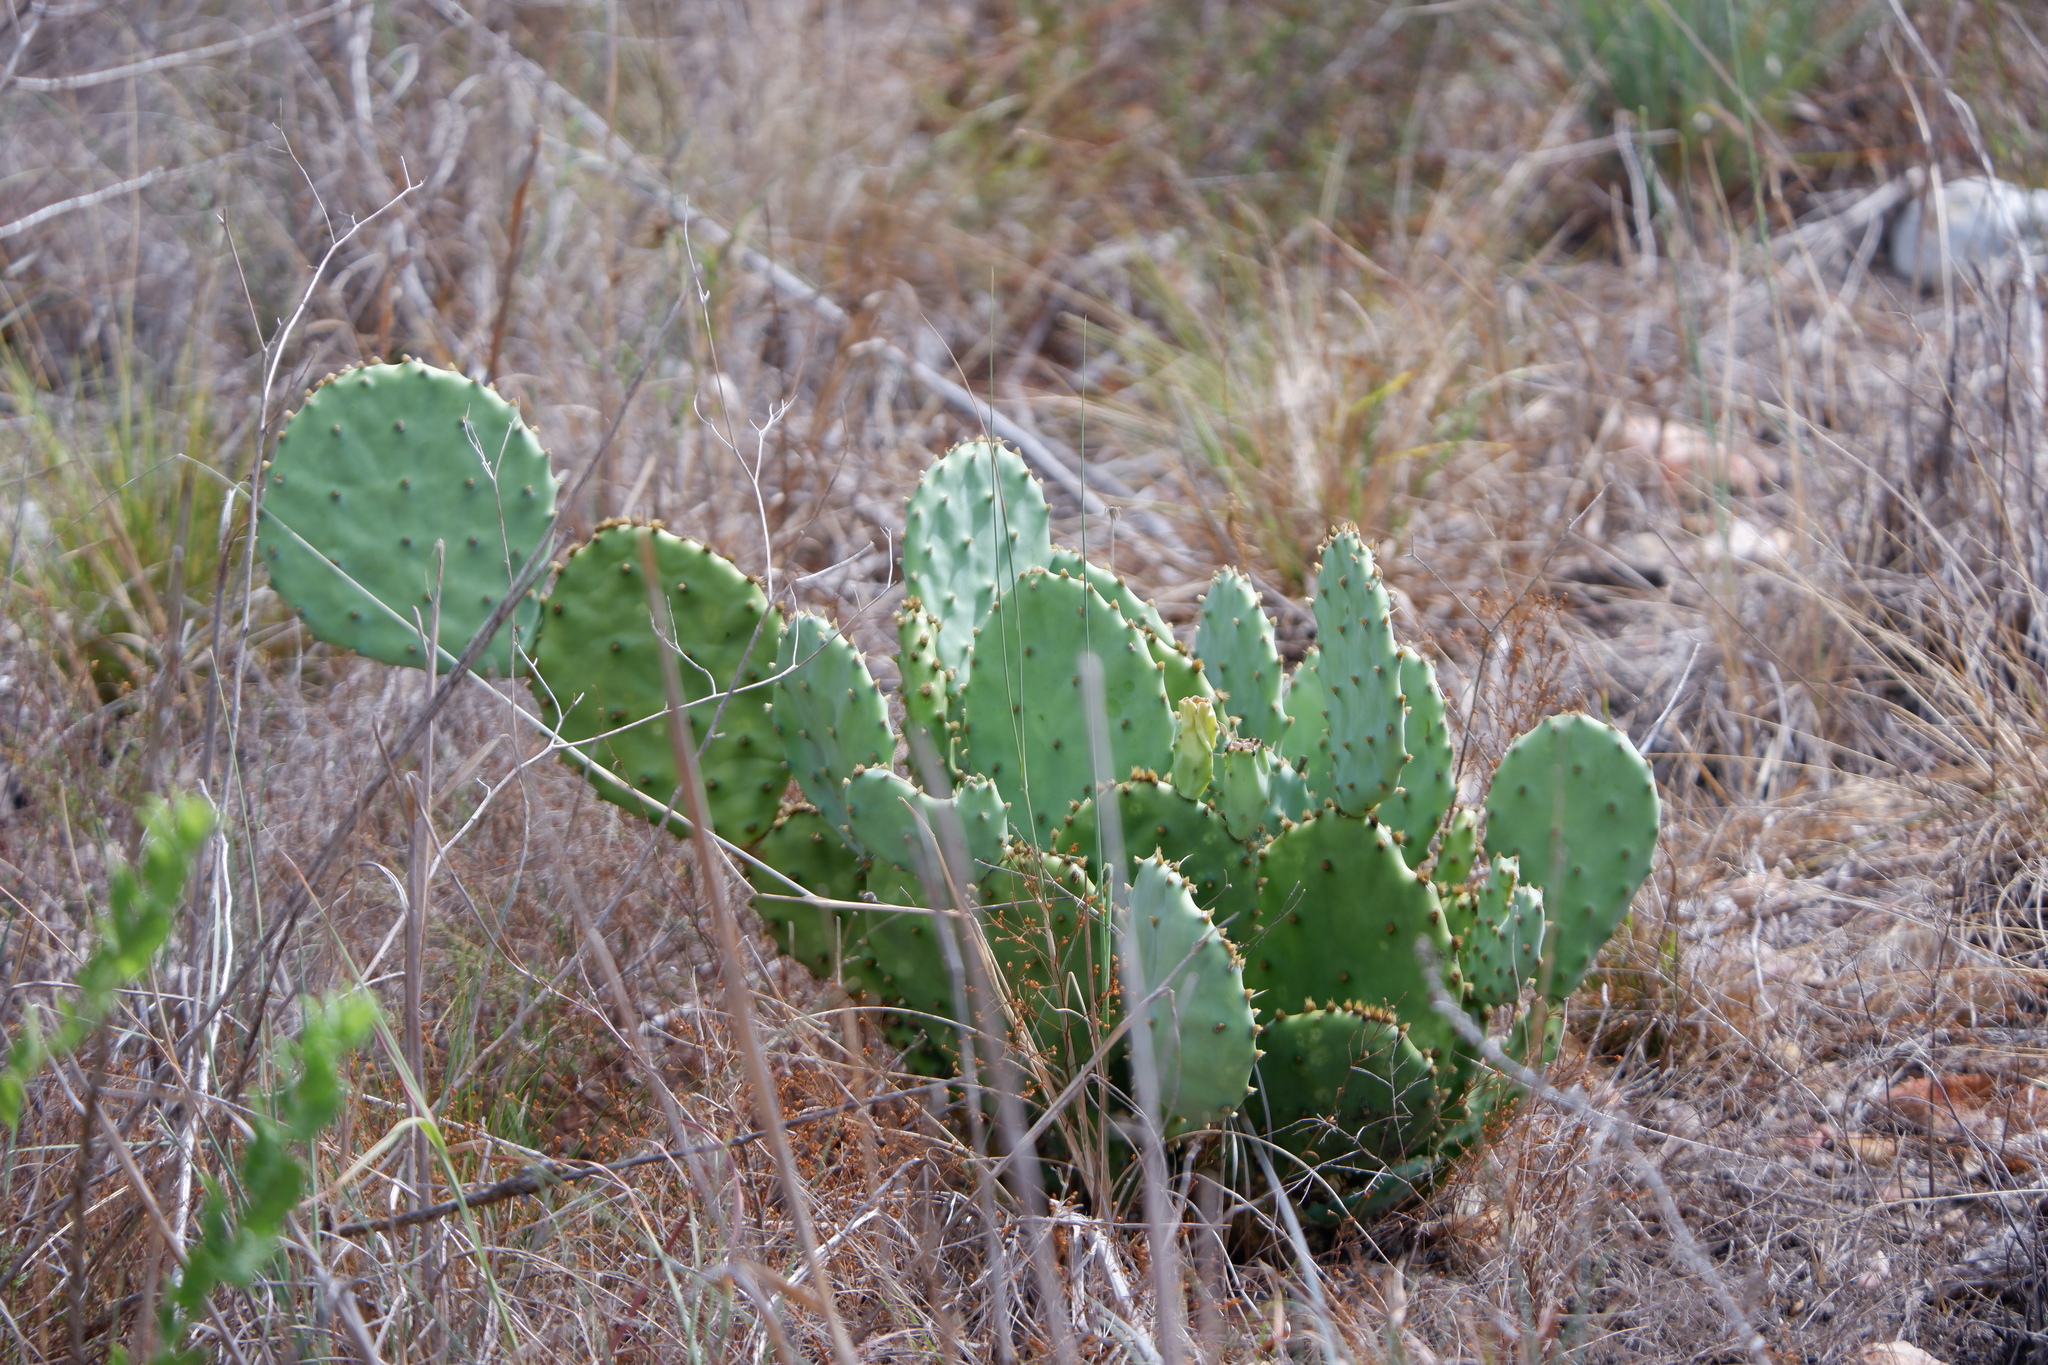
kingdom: Plantae
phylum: Tracheophyta
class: Magnoliopsida
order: Caryophyllales
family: Cactaceae
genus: Opuntia
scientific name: Opuntia macrorhiza
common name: Grassland pricklypear
